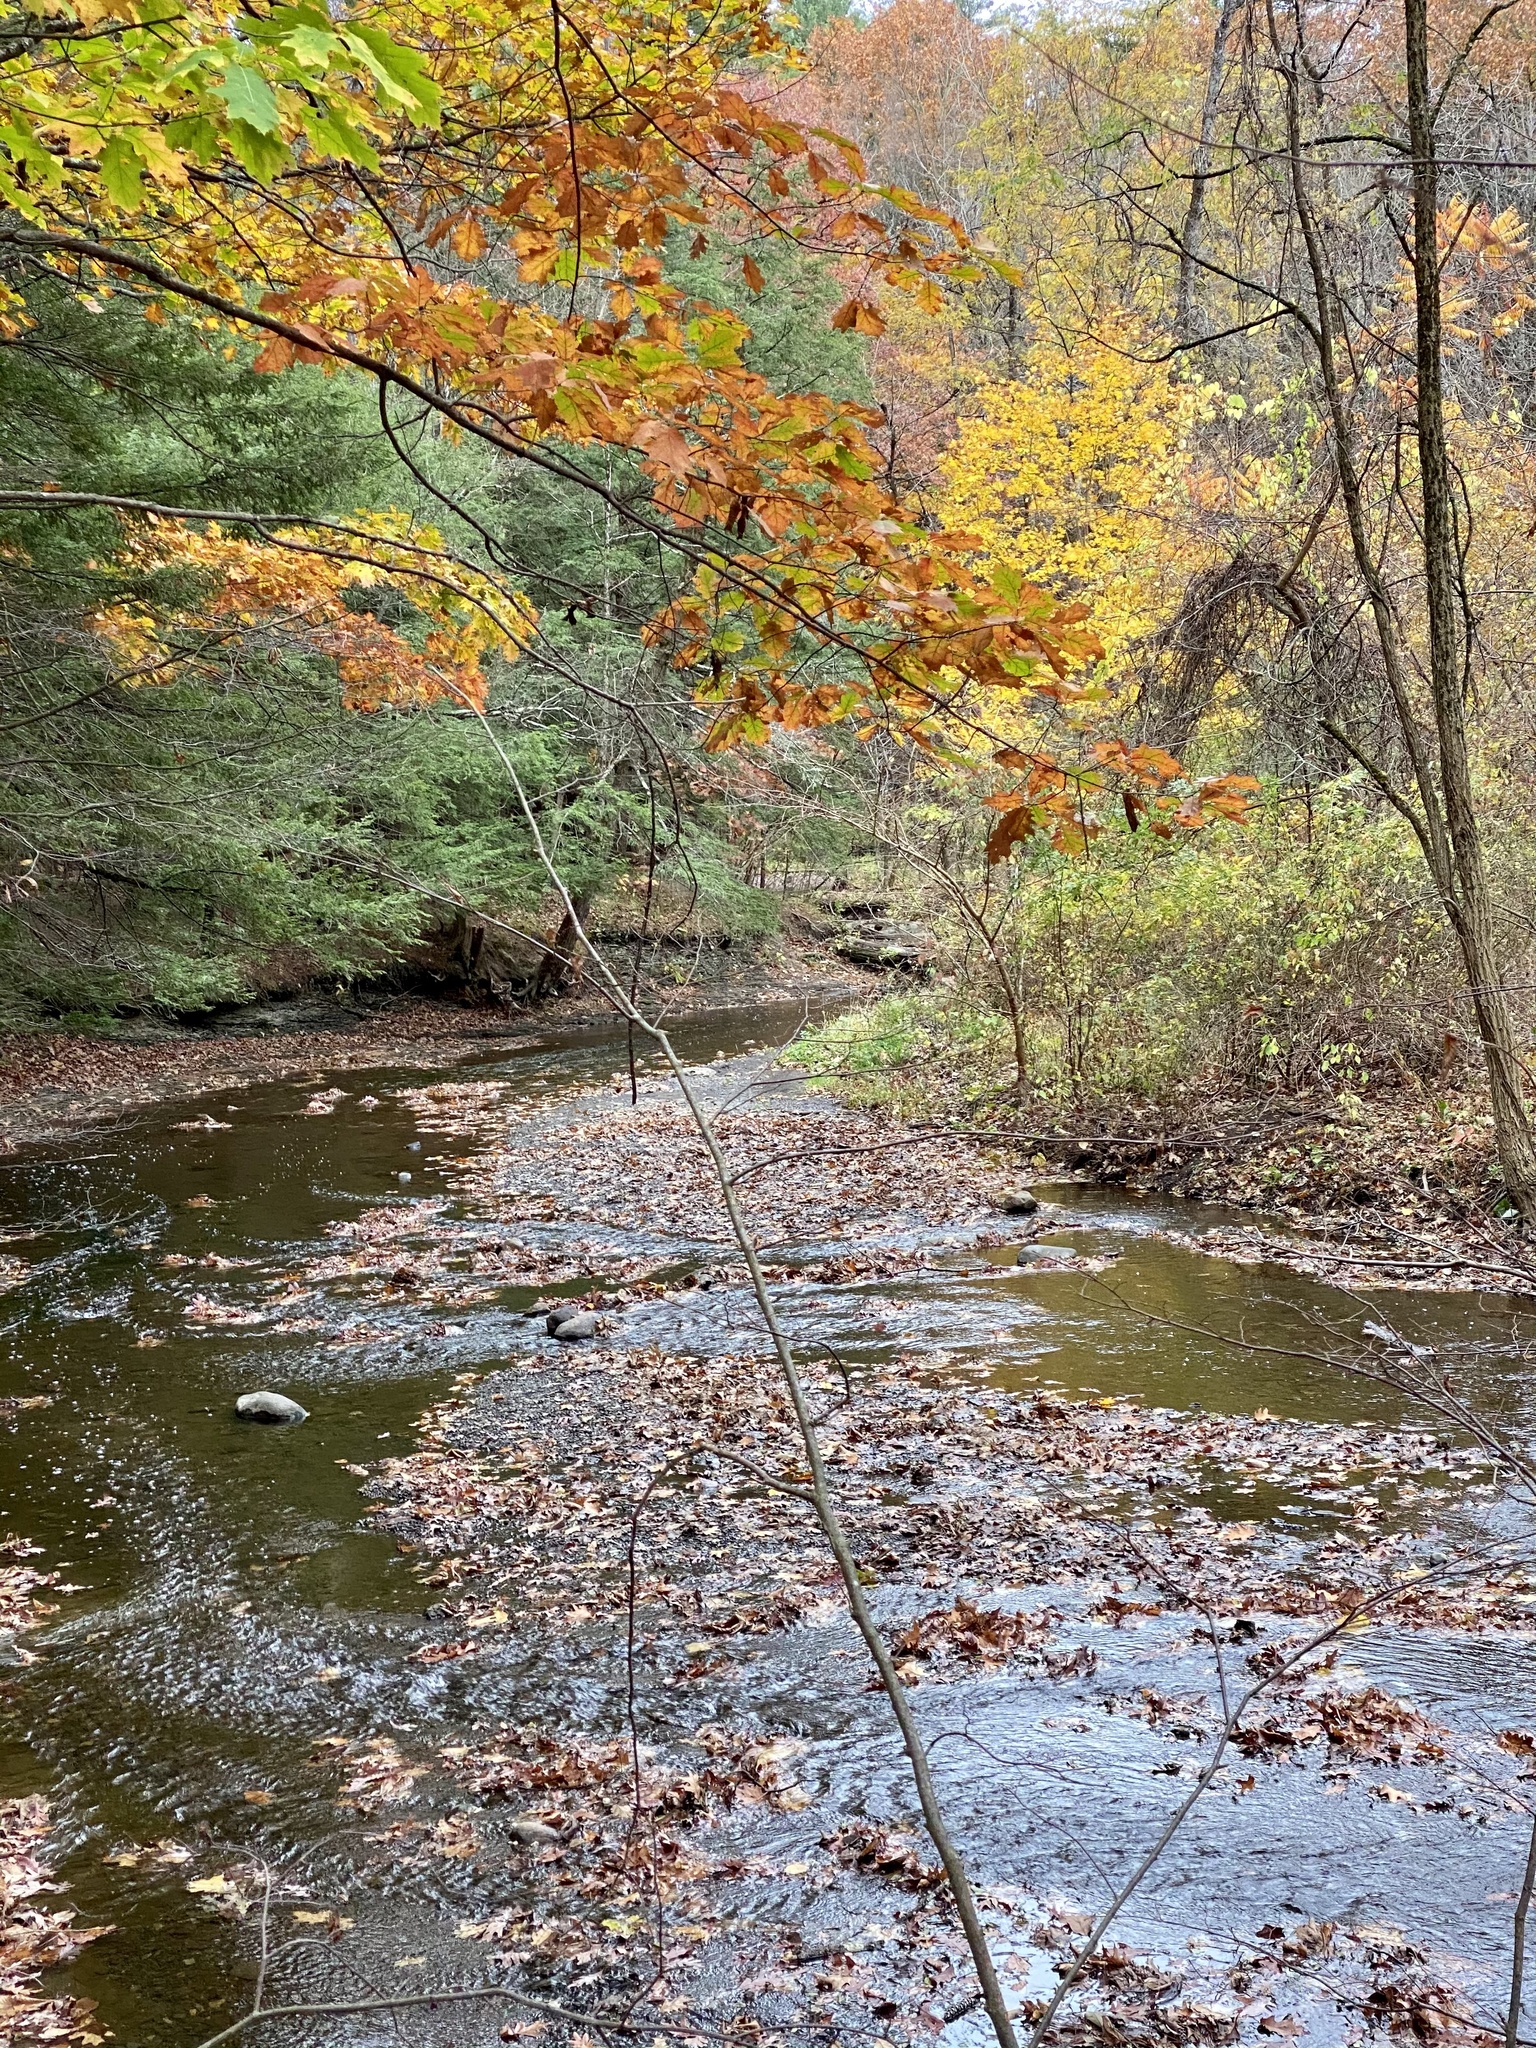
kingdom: Plantae
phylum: Tracheophyta
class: Magnoliopsida
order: Fagales
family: Fagaceae
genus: Quercus
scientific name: Quercus rubra
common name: Red oak
